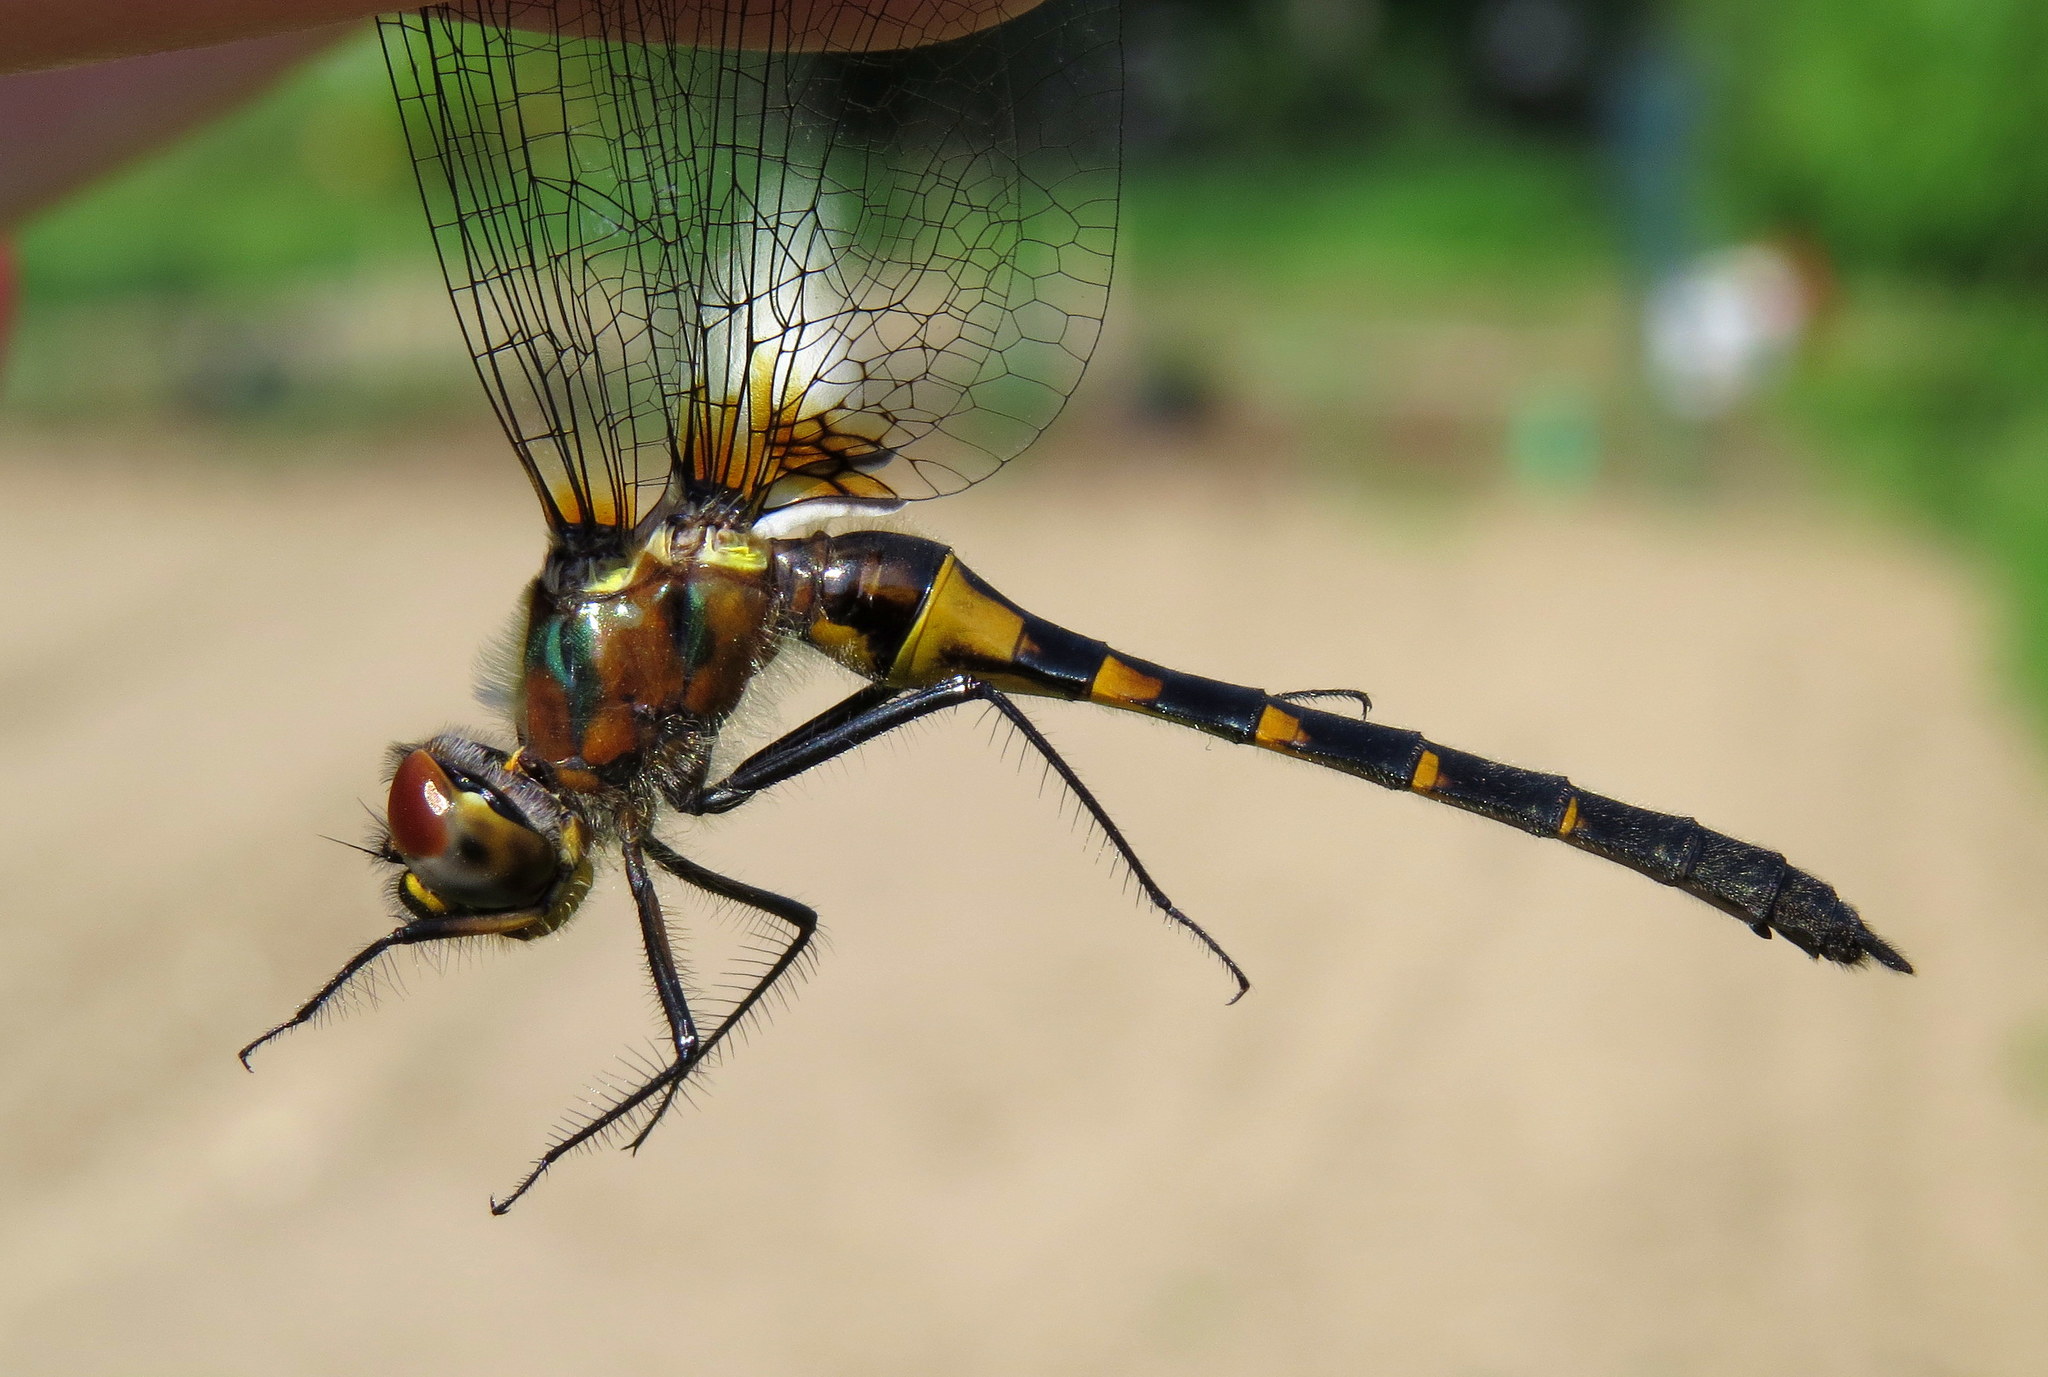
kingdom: Animalia
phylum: Arthropoda
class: Insecta
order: Odonata
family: Corduliidae
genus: Dorocordulia
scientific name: Dorocordulia lepida
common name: Petite emerald
